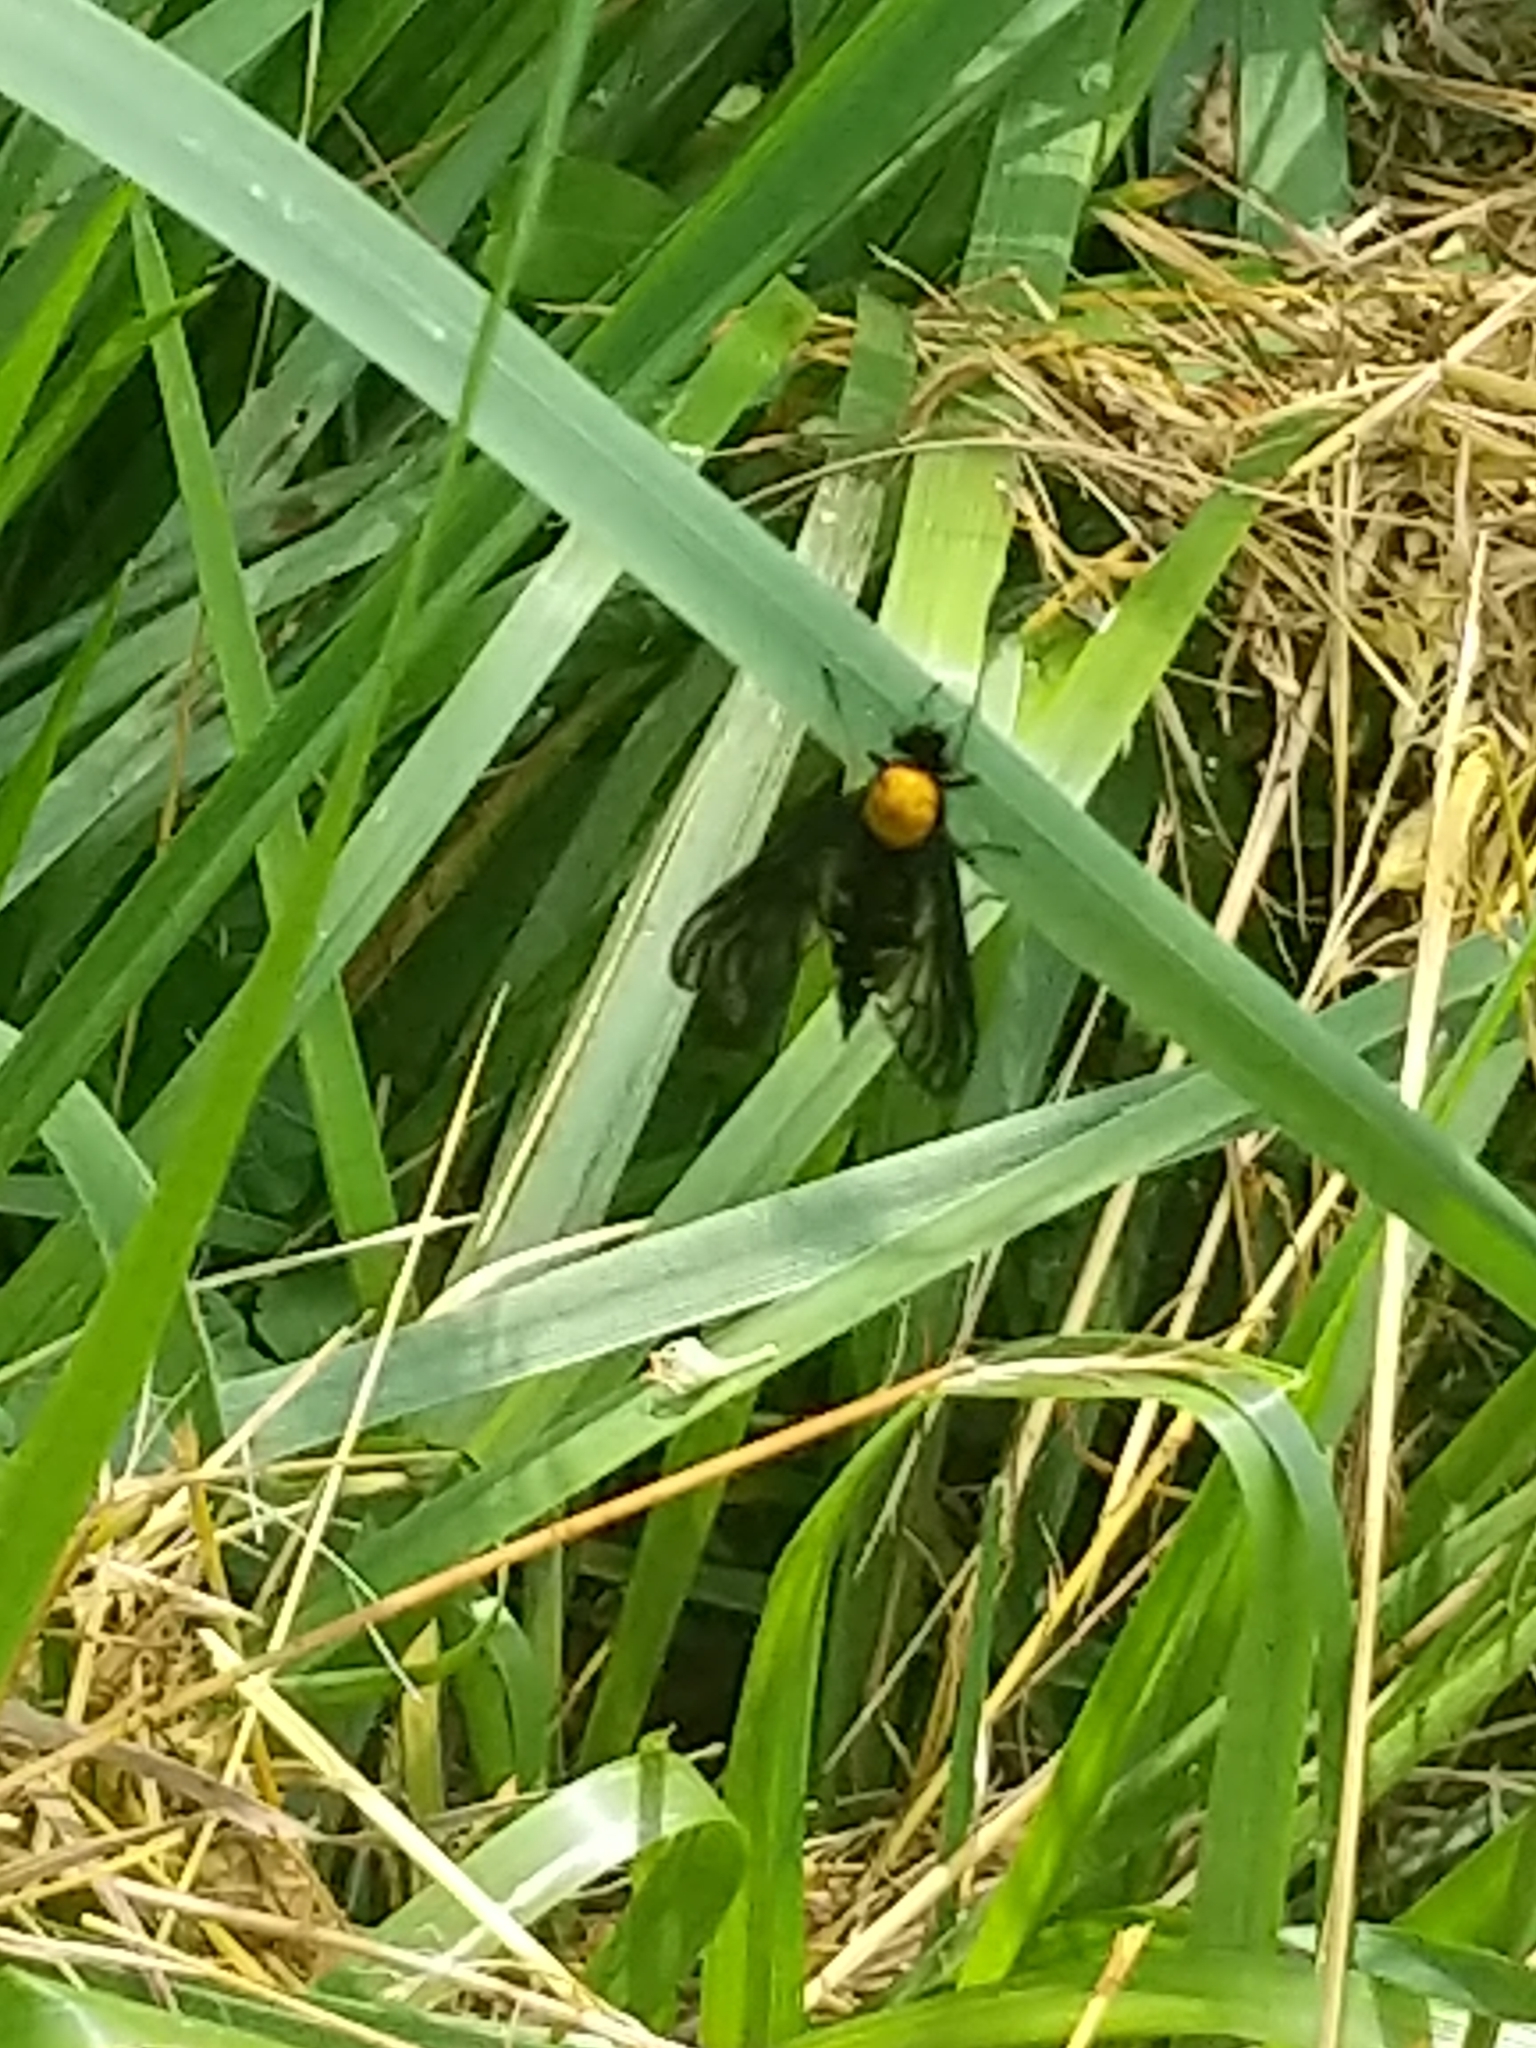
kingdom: Animalia
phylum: Arthropoda
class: Insecta
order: Diptera
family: Rhagionidae
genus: Chrysopilus
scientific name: Chrysopilus thoracicus
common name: Golden-backed snipe fly
